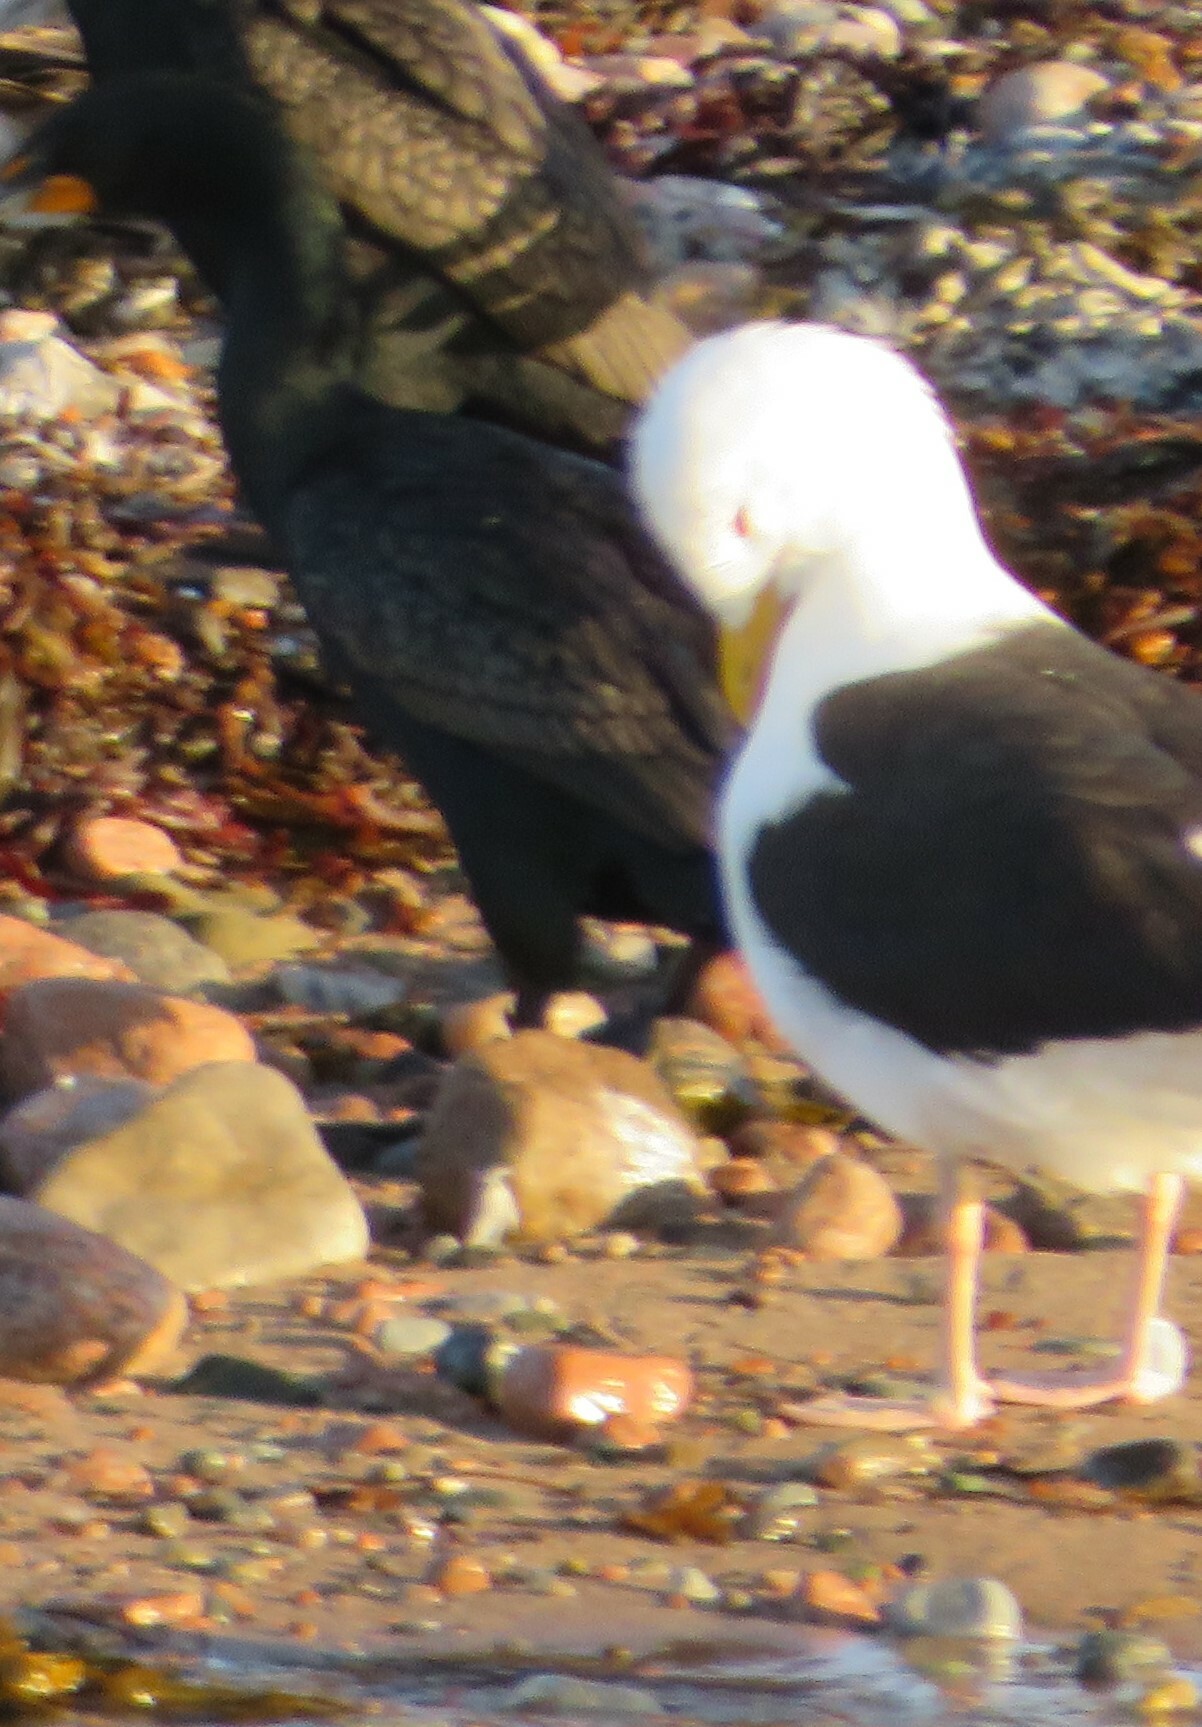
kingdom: Animalia
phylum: Chordata
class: Aves
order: Charadriiformes
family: Laridae
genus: Larus
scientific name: Larus marinus
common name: Great black-backed gull
